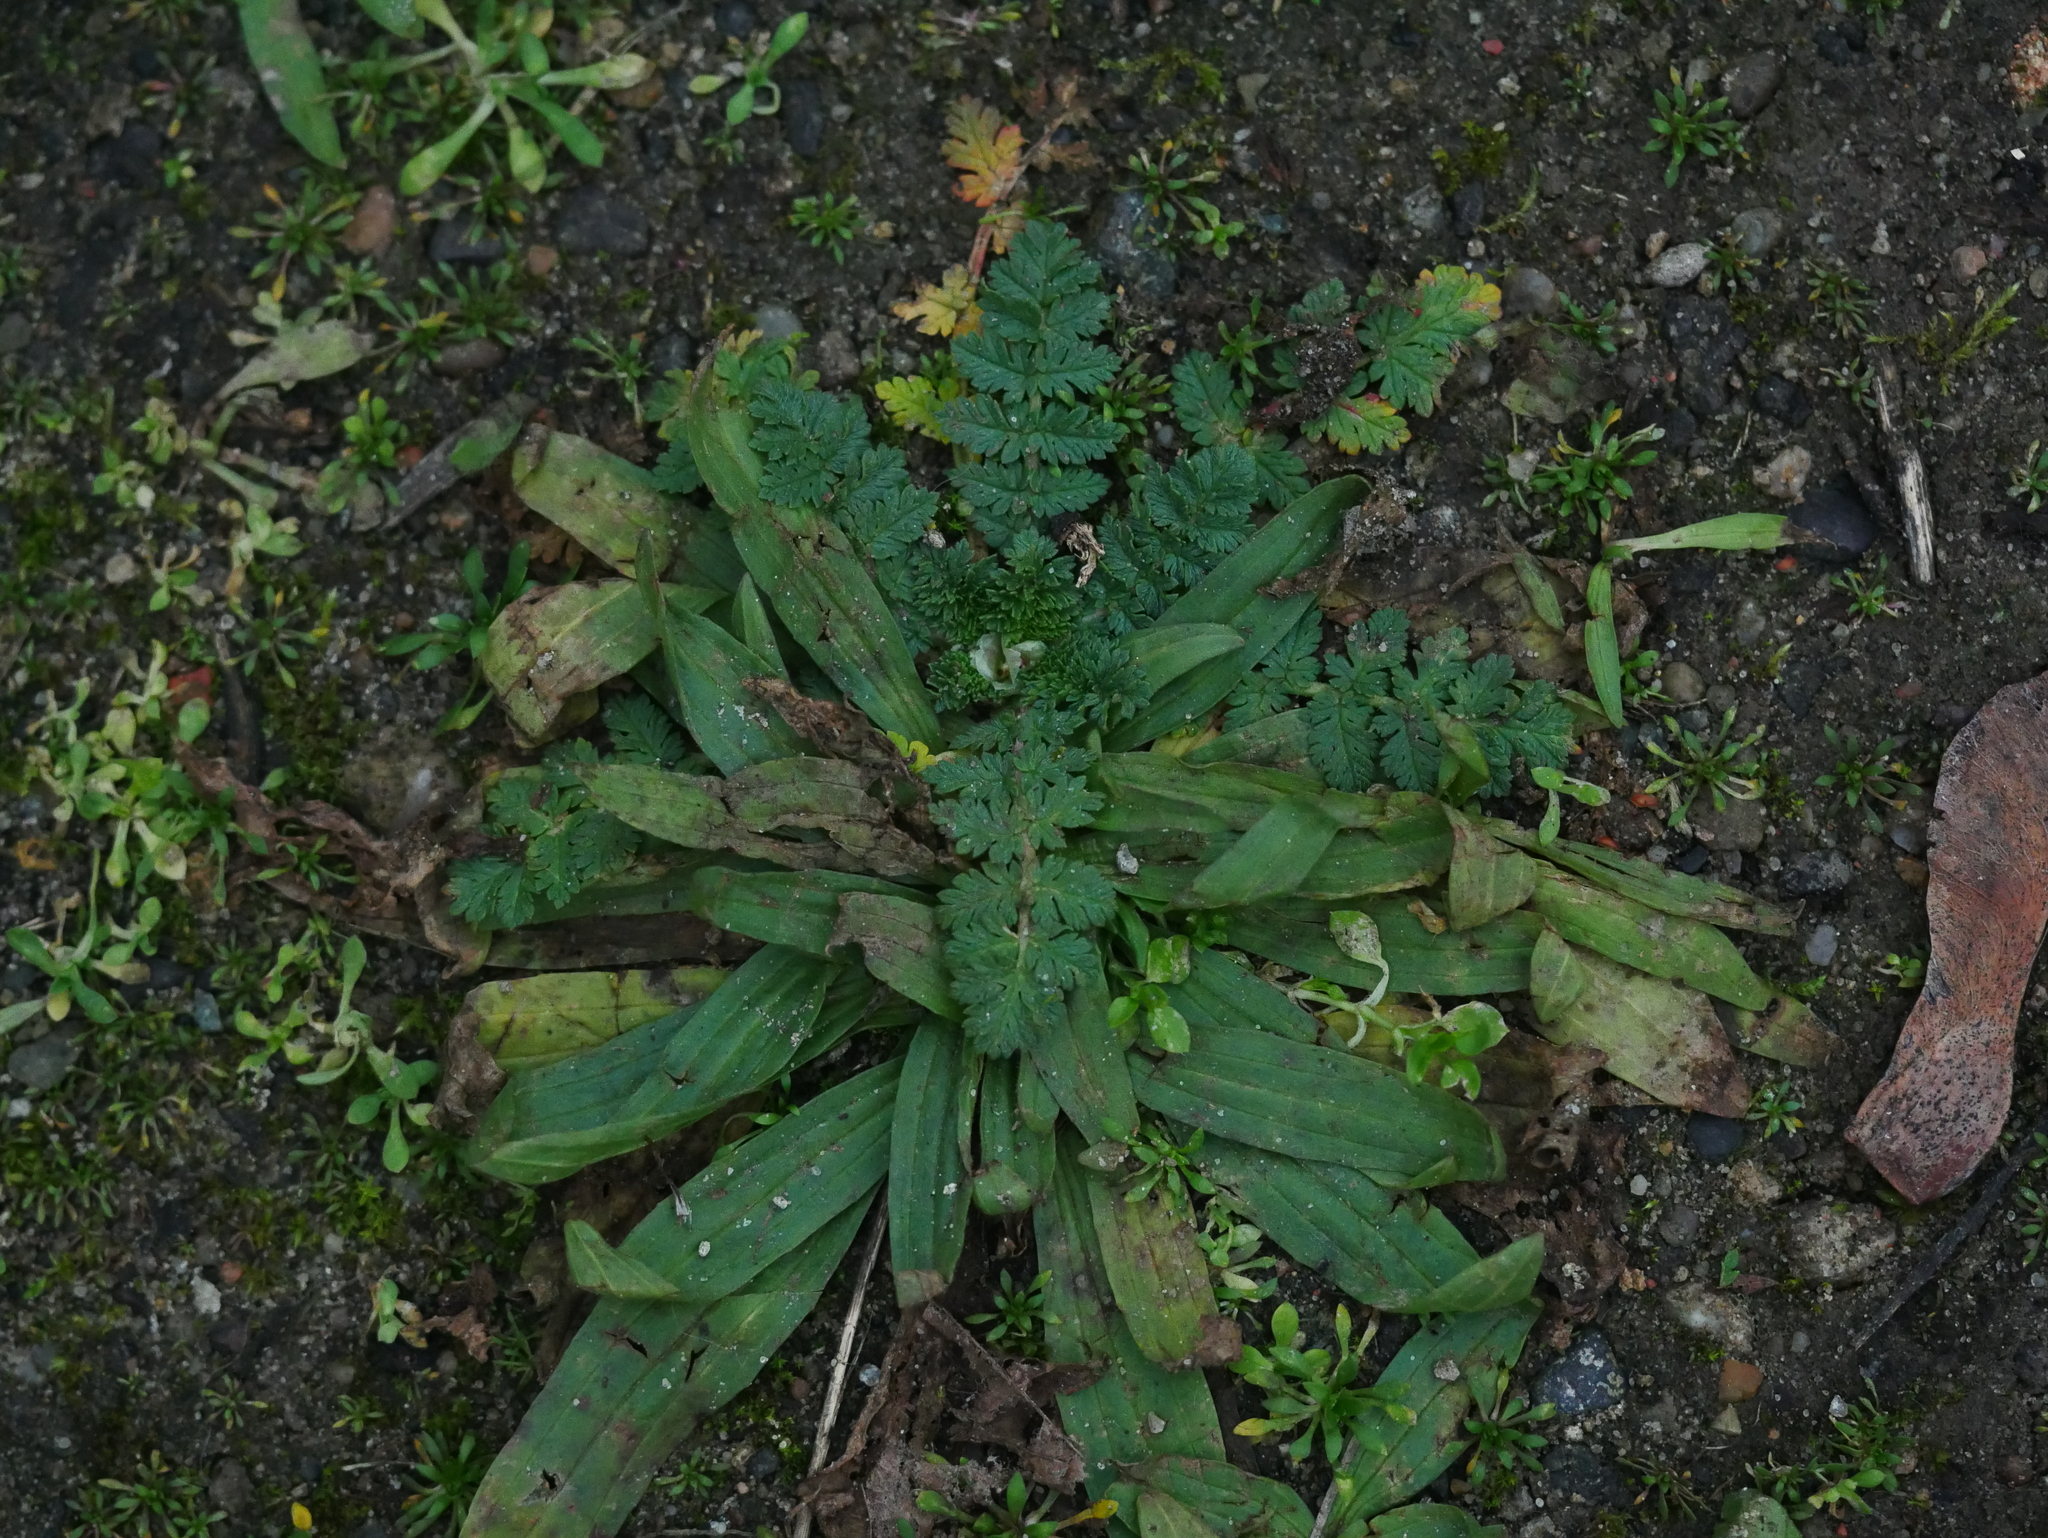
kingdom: Plantae
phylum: Tracheophyta
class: Magnoliopsida
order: Lamiales
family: Plantaginaceae
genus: Plantago
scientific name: Plantago lanceolata
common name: Ribwort plantain
